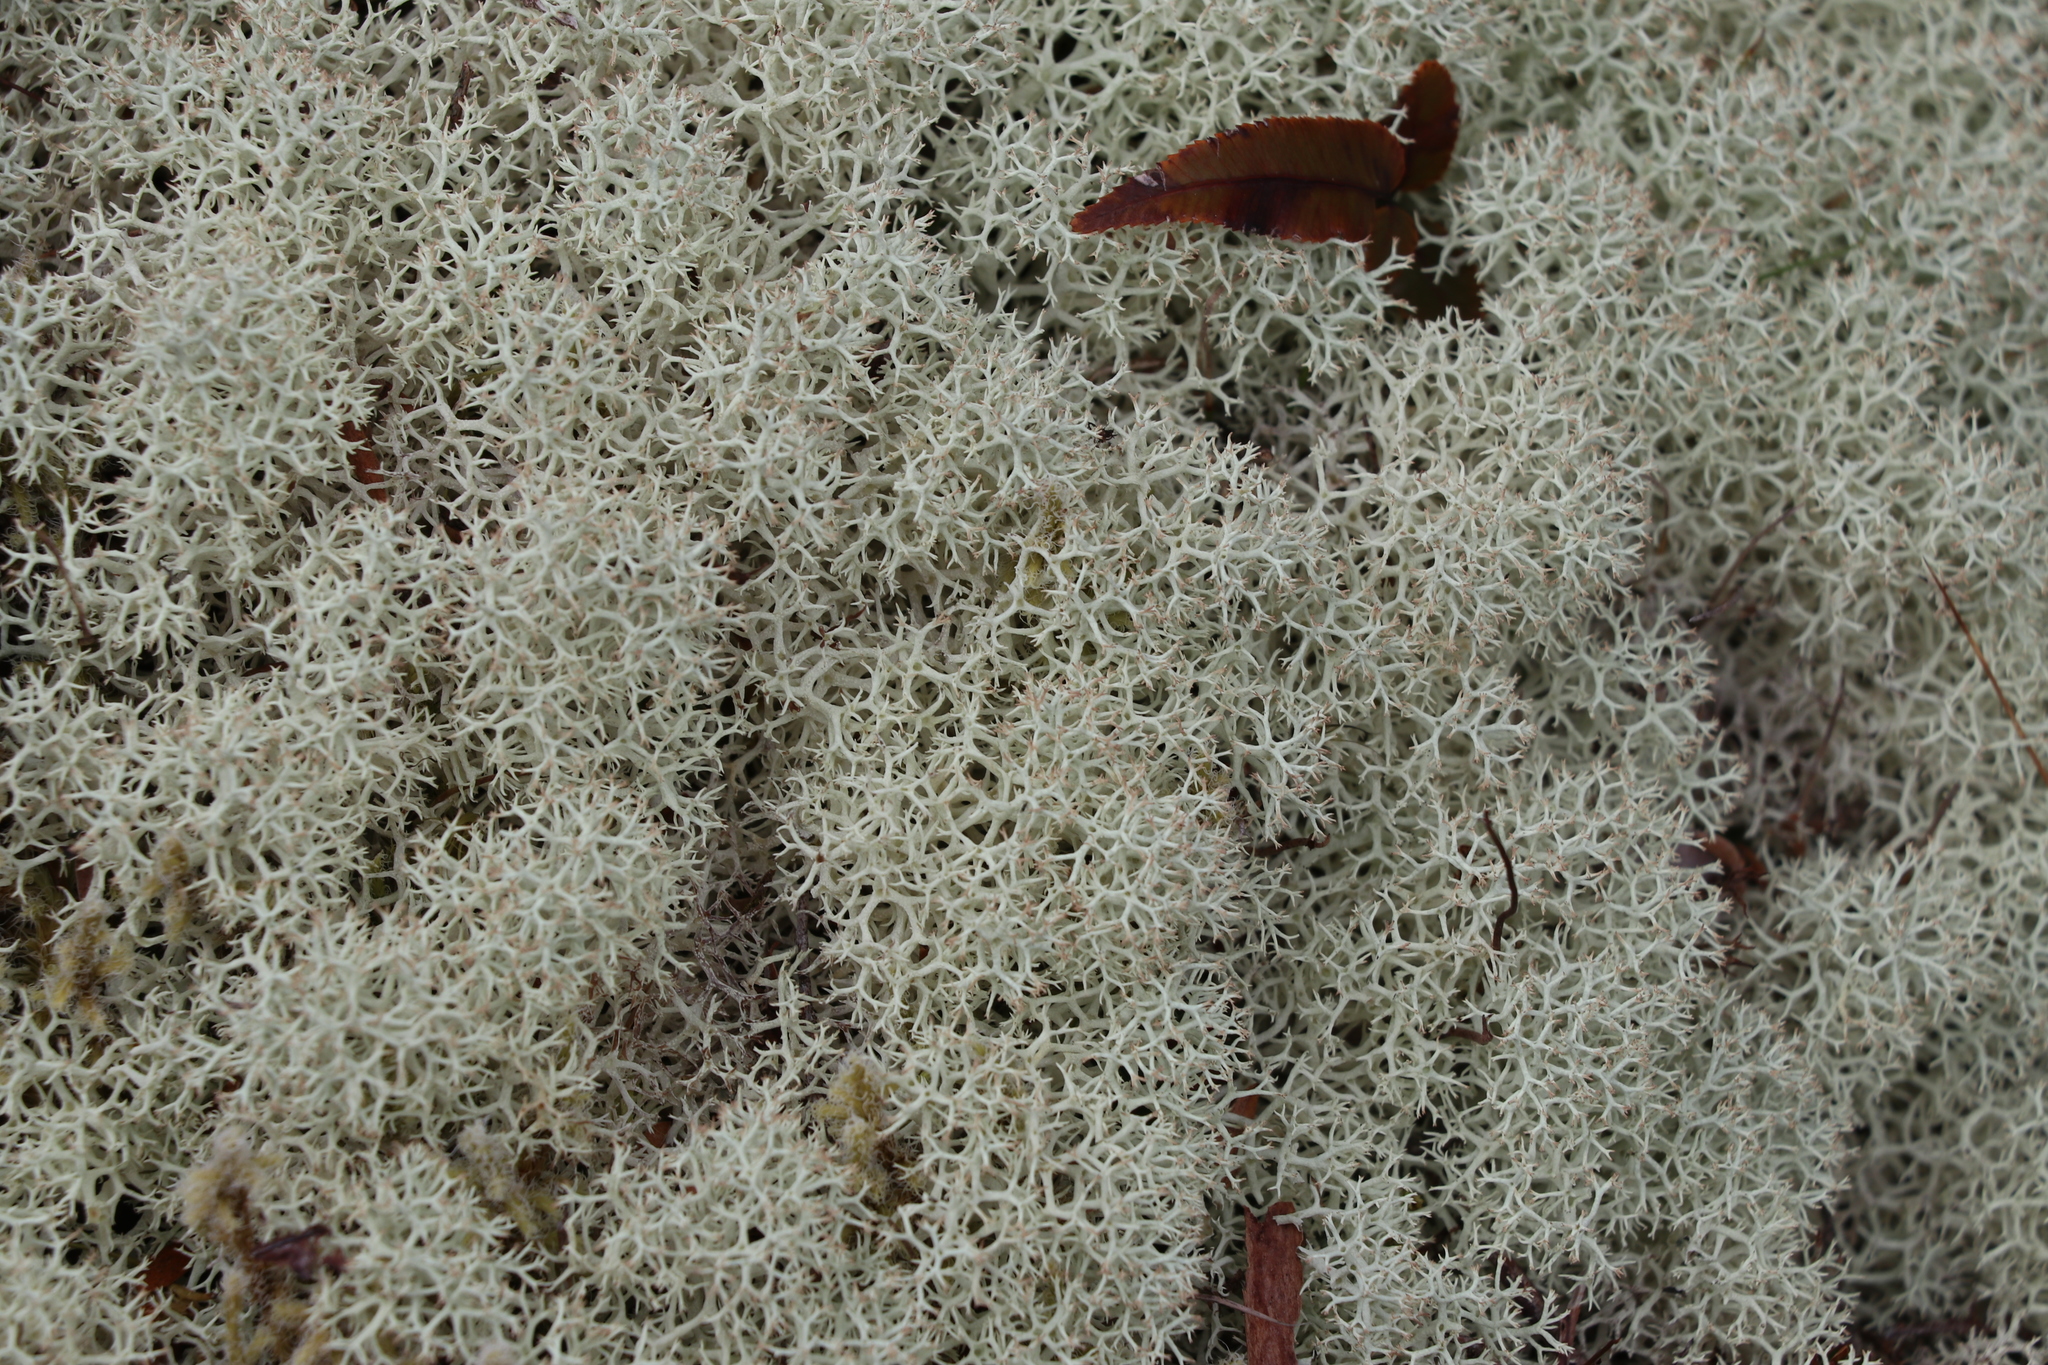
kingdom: Fungi
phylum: Ascomycota
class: Lecanoromycetes
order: Lecanorales
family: Cladoniaceae
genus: Cladonia
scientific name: Cladonia confusa
